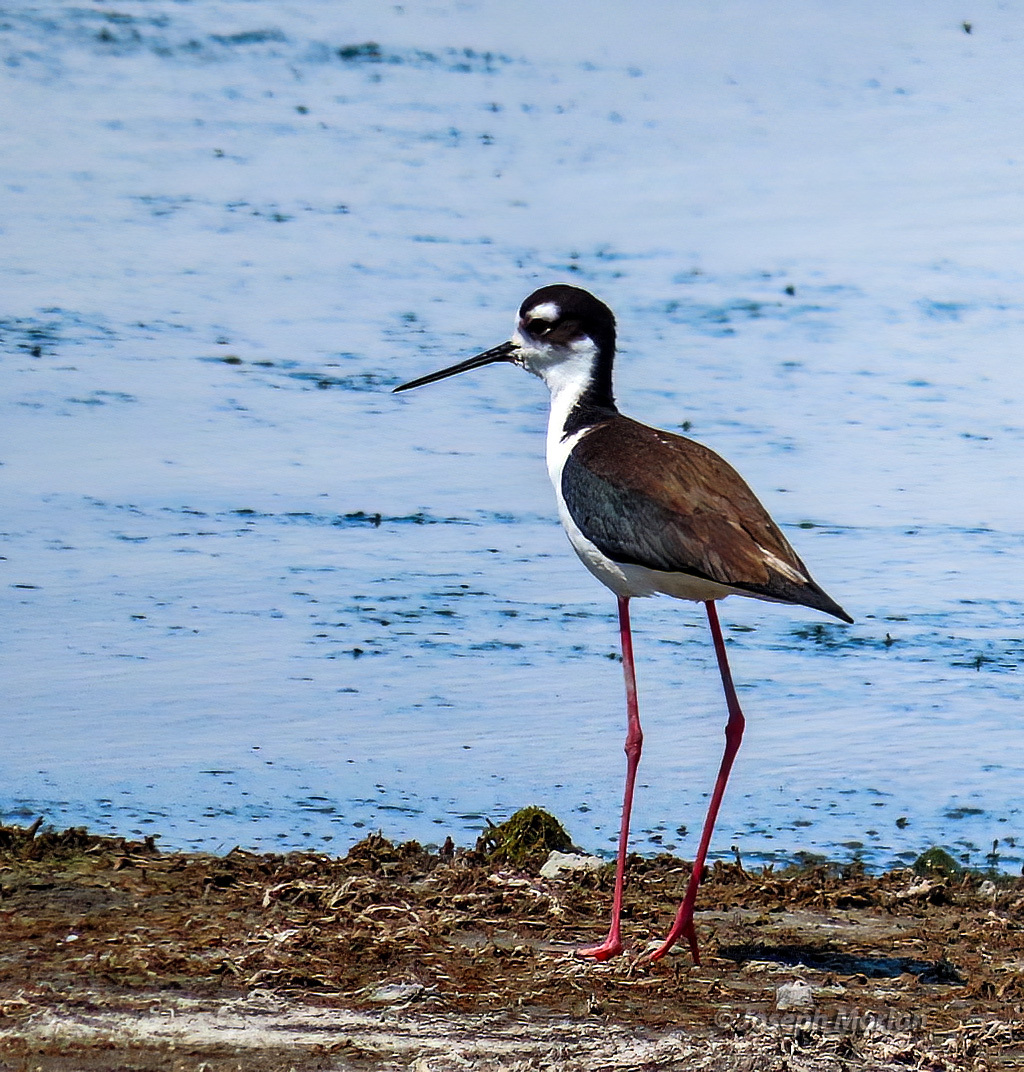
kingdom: Animalia
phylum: Chordata
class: Aves
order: Charadriiformes
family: Recurvirostridae
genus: Himantopus
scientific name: Himantopus mexicanus
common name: Black-necked stilt
